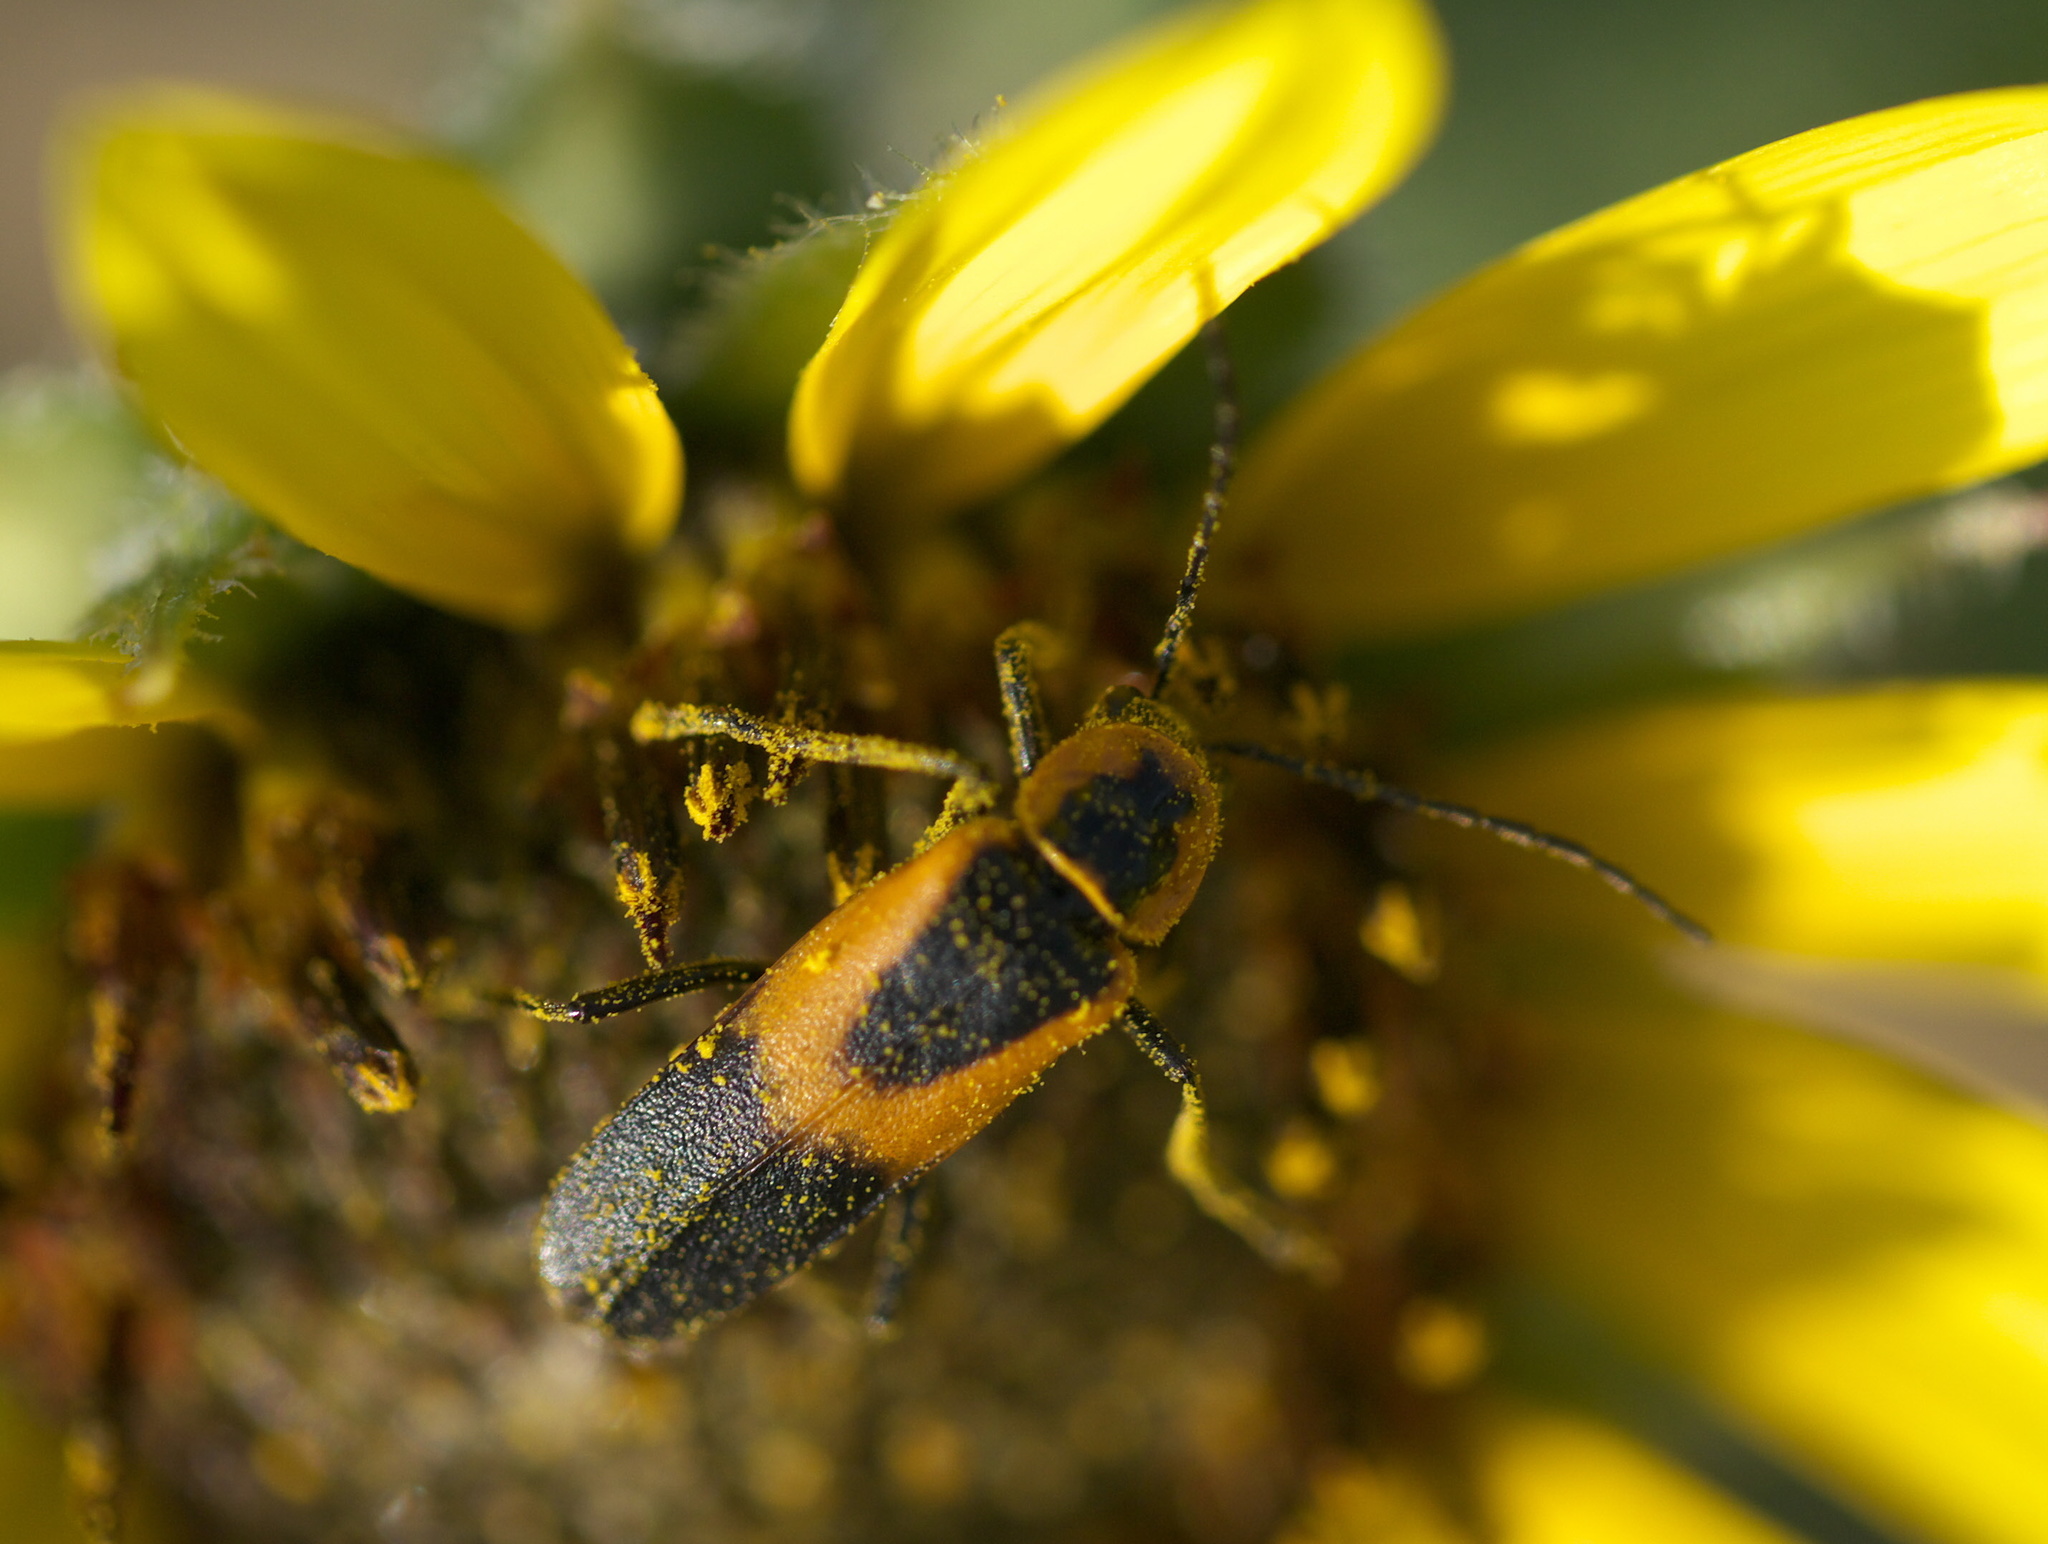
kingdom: Animalia
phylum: Arthropoda
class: Insecta
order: Coleoptera
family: Cantharidae
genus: Chauliognathus
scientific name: Chauliognathus basalis
